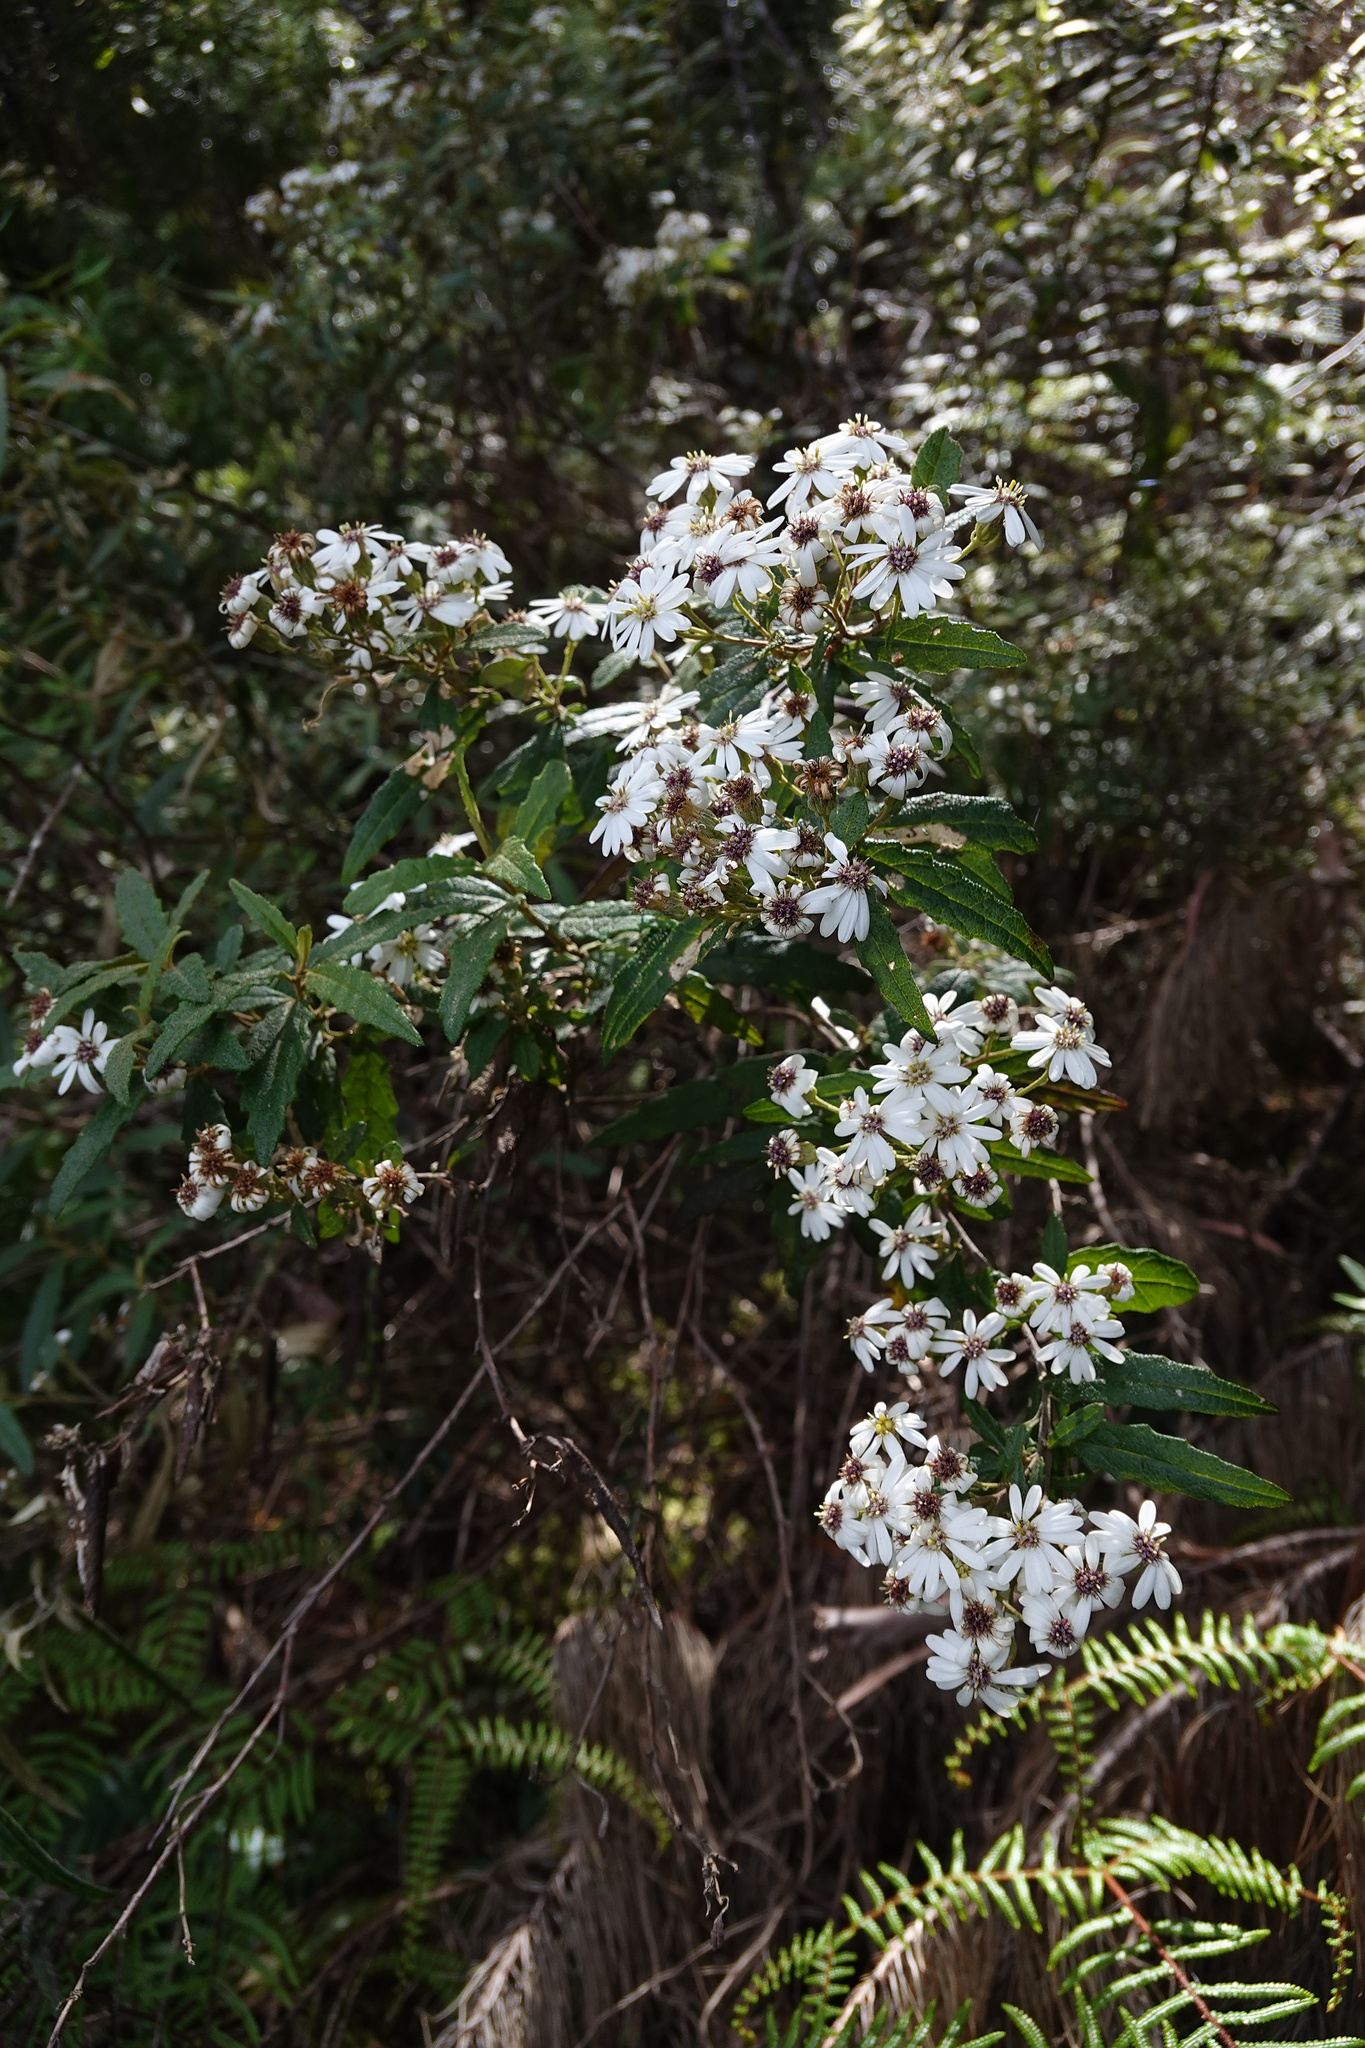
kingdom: Plantae
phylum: Tracheophyta
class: Magnoliopsida
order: Asterales
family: Asteraceae
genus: Olearia
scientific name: Olearia stellulata
